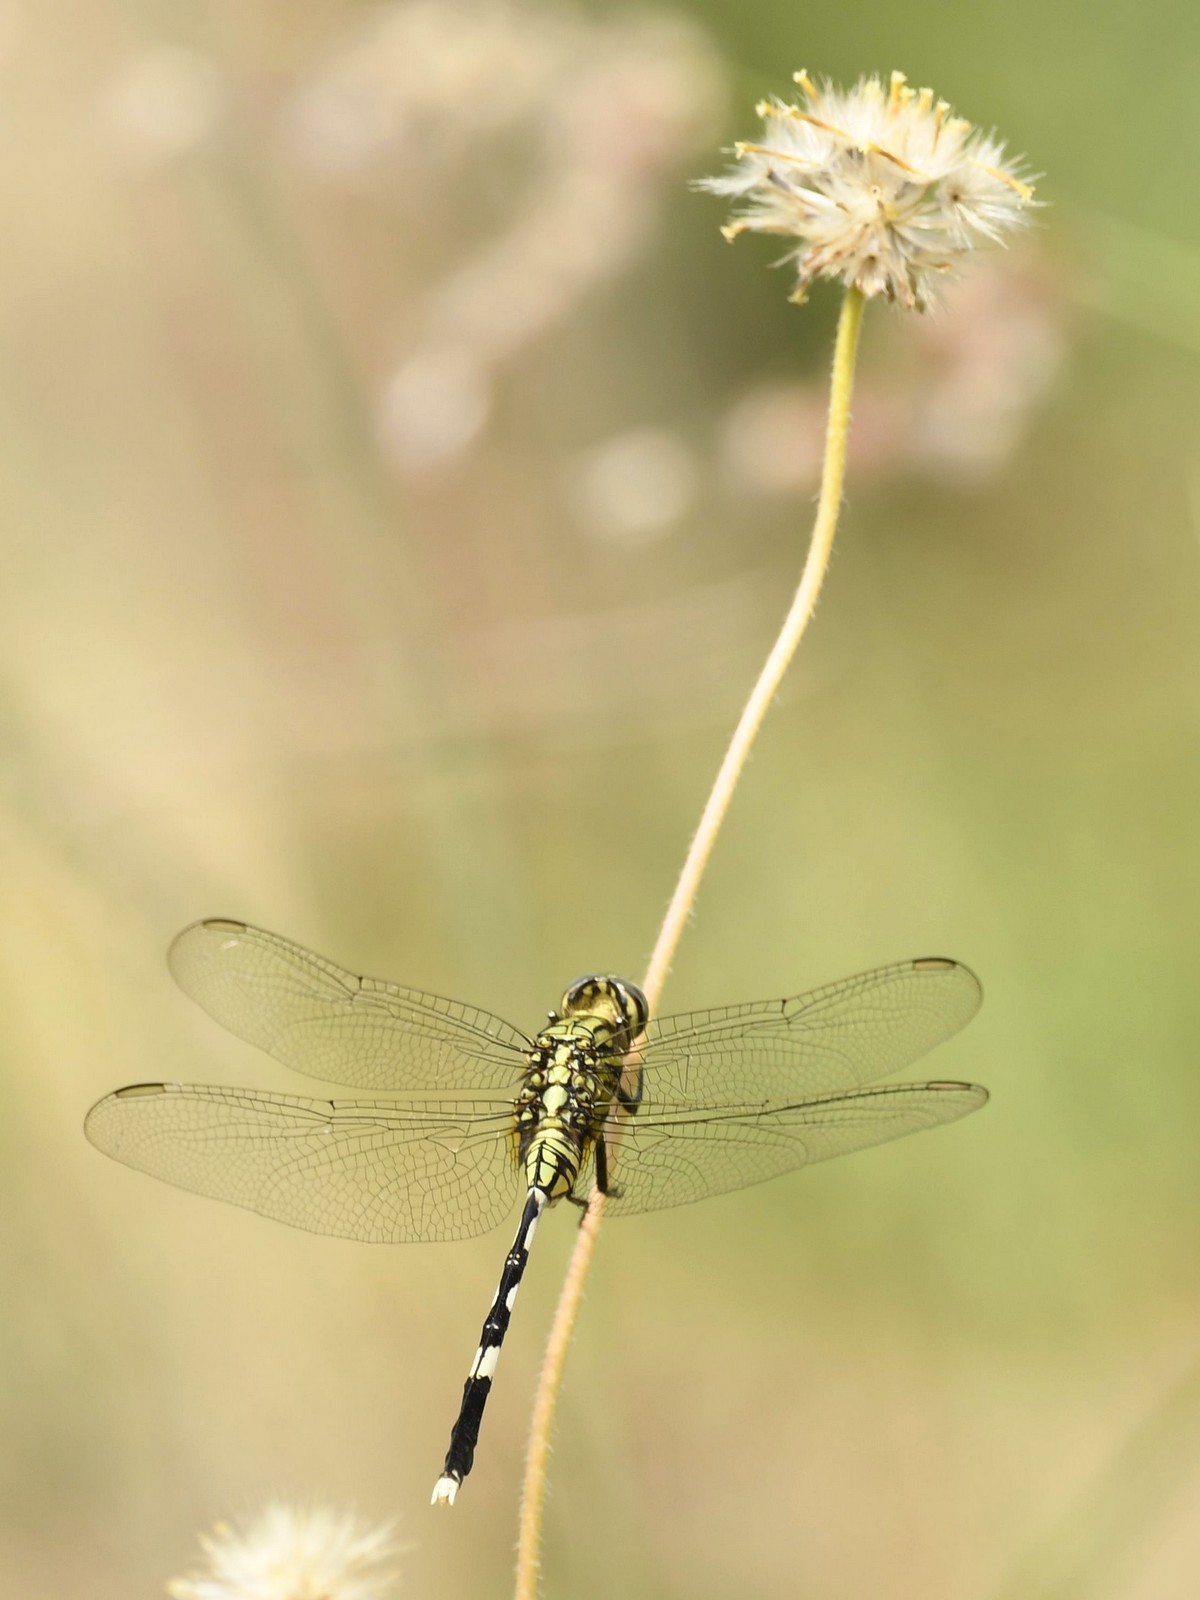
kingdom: Animalia
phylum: Arthropoda
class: Insecta
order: Odonata
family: Libellulidae
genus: Orthetrum
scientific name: Orthetrum sabina
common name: Slender skimmer
